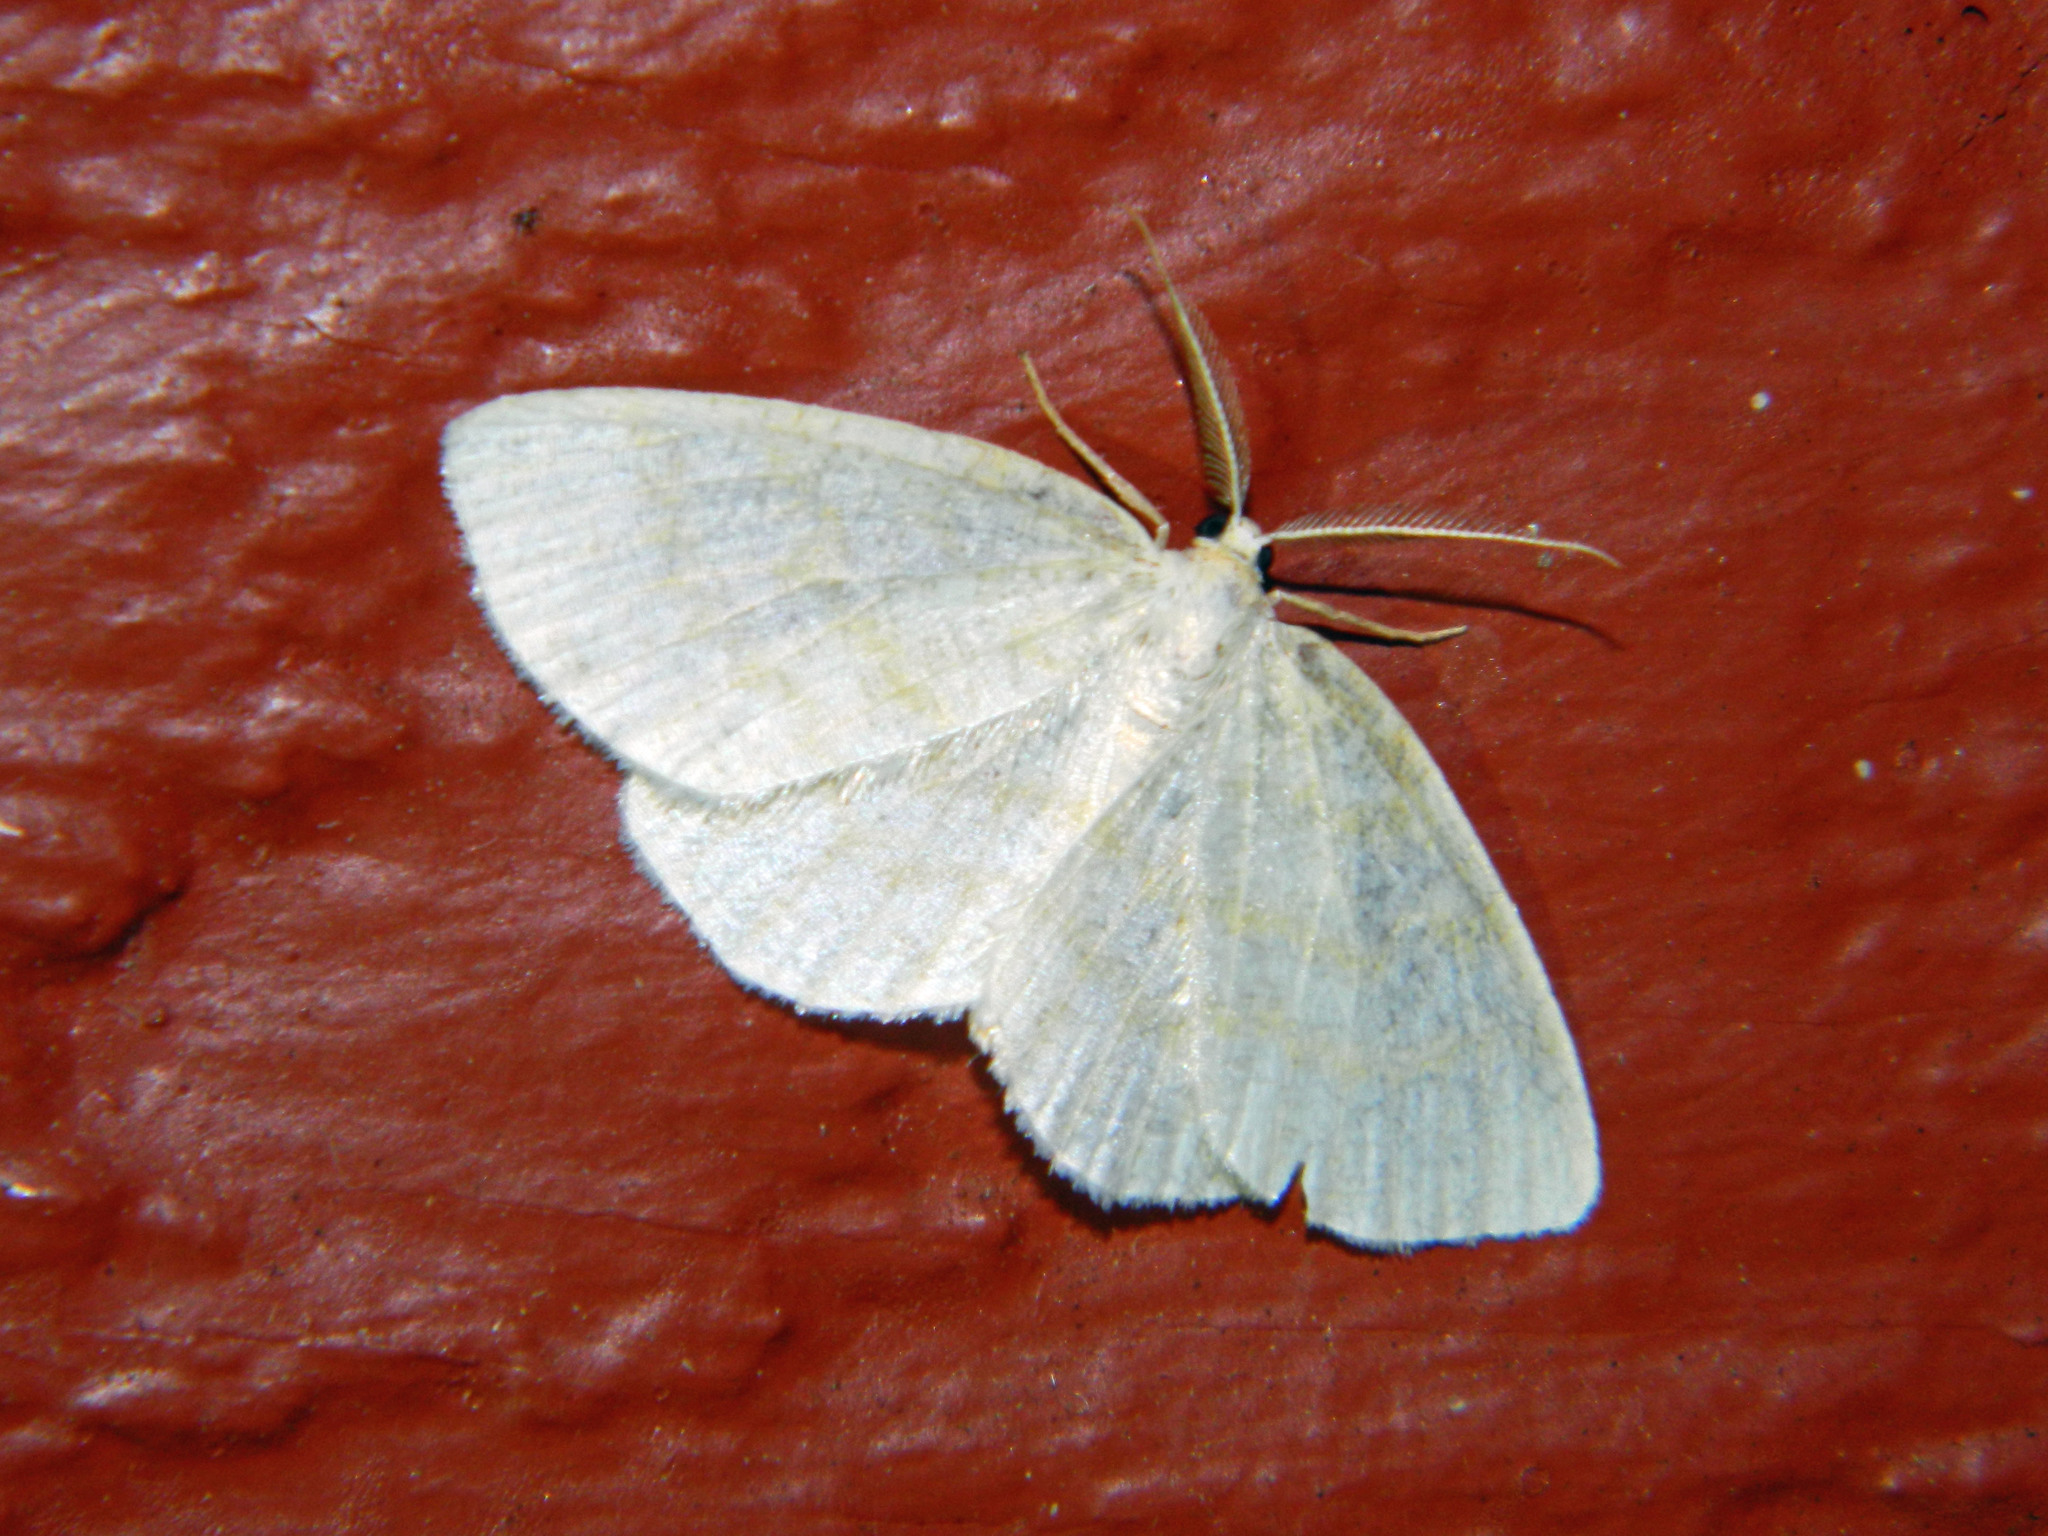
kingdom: Animalia
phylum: Arthropoda
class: Insecta
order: Lepidoptera
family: Geometridae
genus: Cabera
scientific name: Cabera erythemaria
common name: Yellow-dusted cream moth
